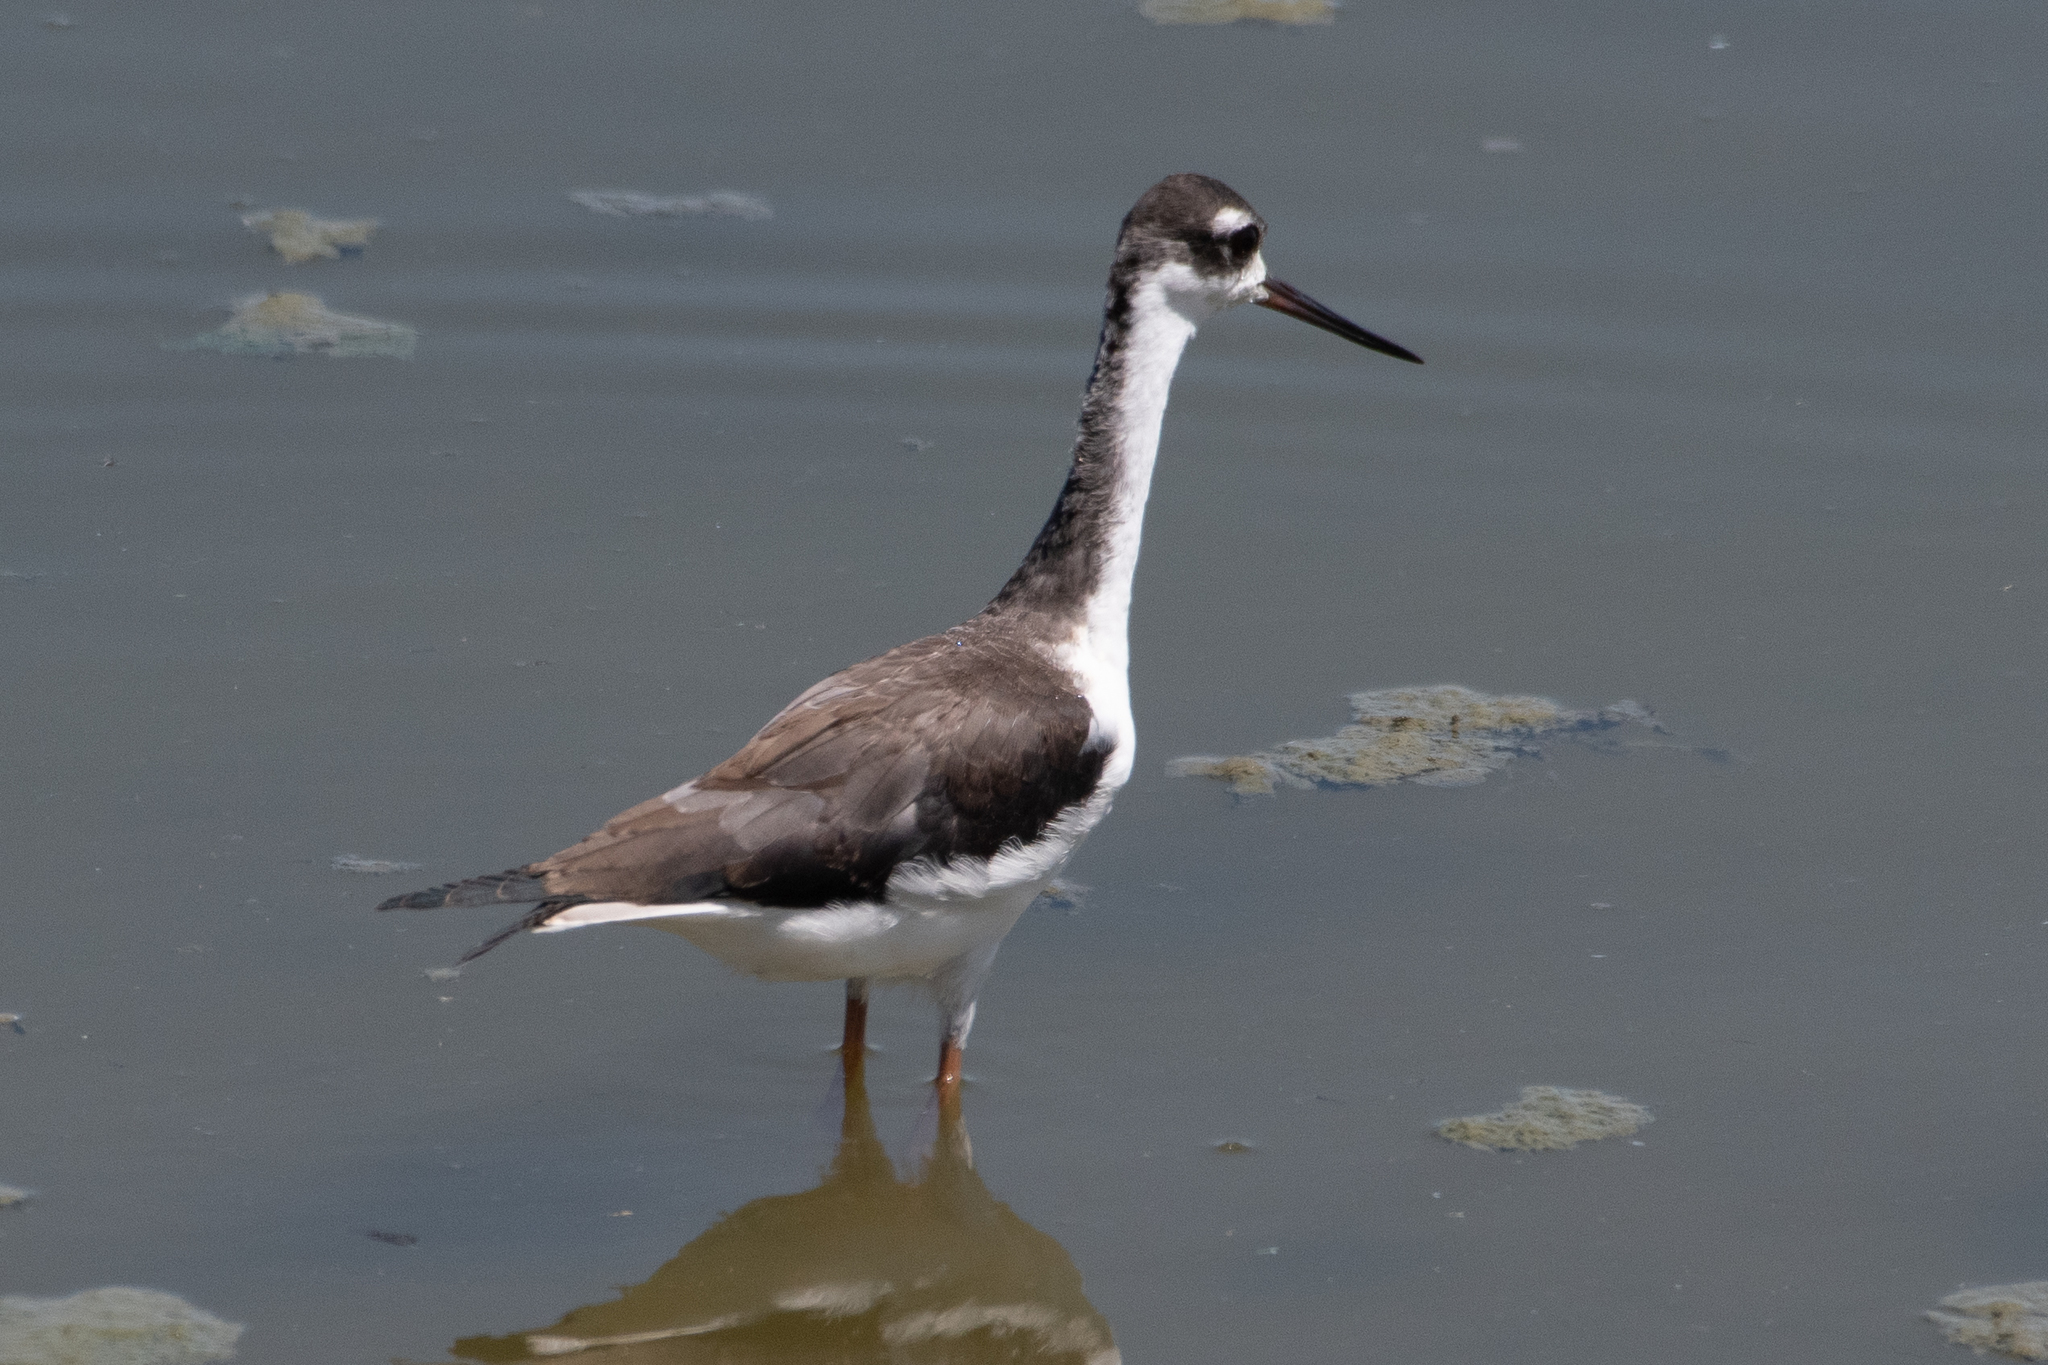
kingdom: Animalia
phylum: Chordata
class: Aves
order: Charadriiformes
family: Recurvirostridae
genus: Himantopus
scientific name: Himantopus mexicanus
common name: Black-necked stilt
